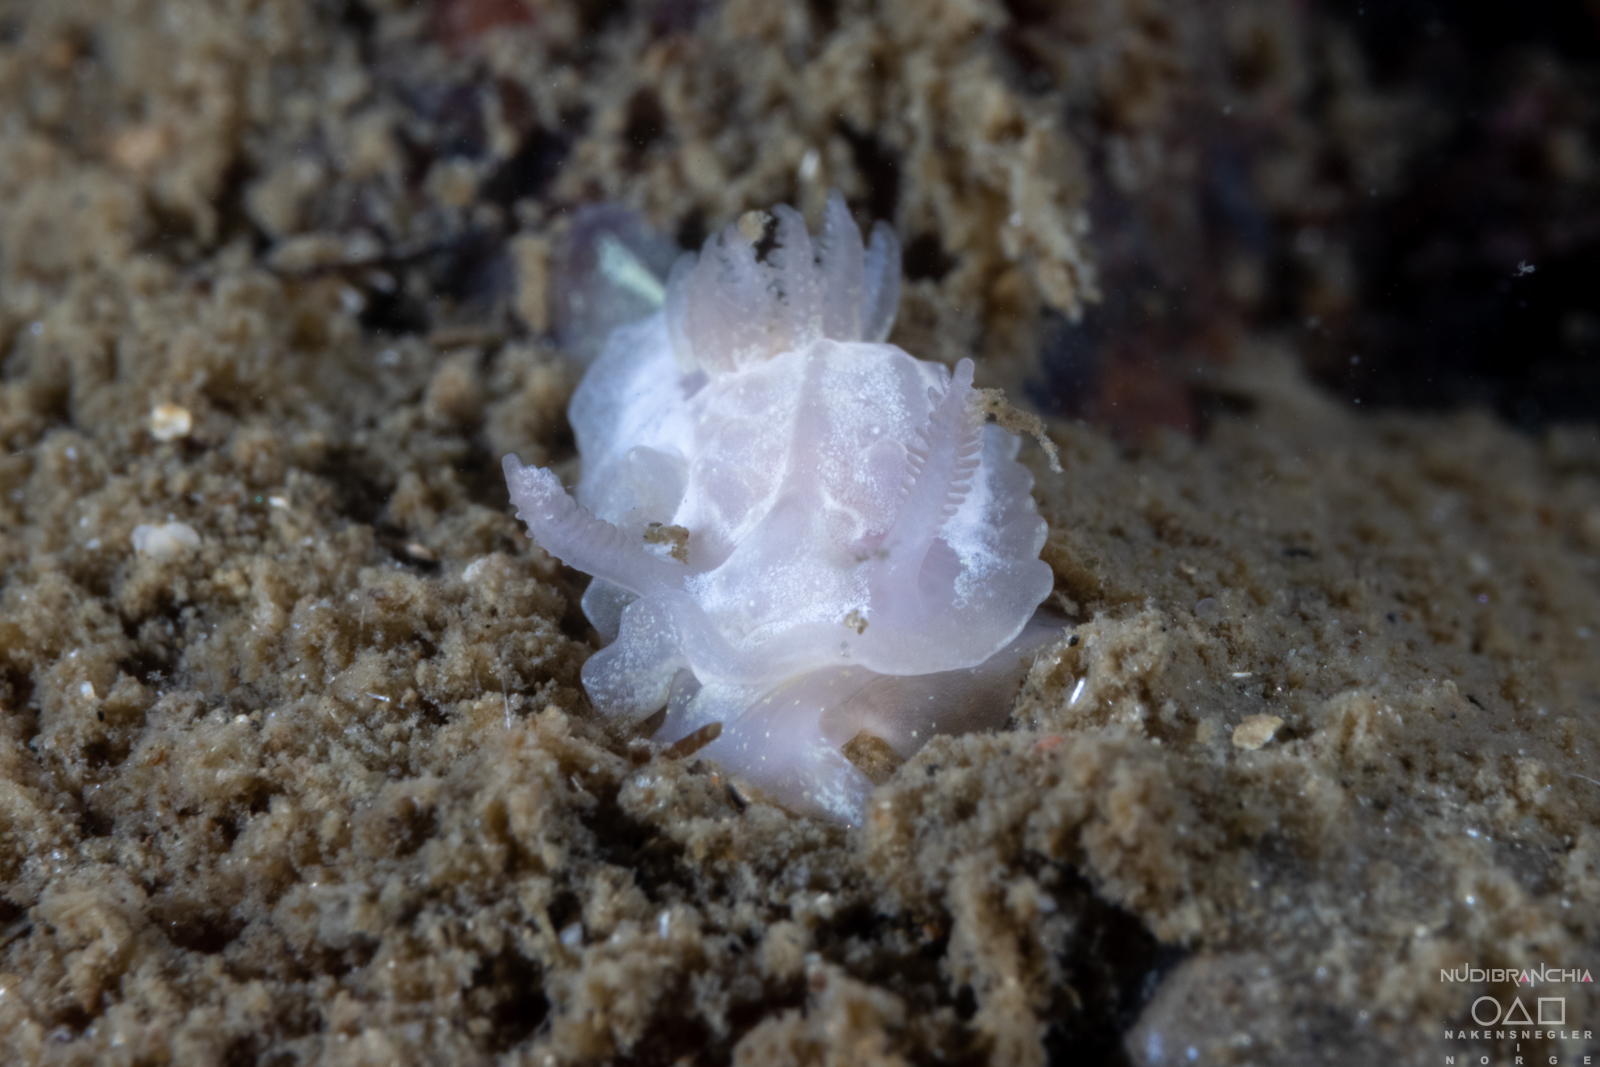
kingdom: Animalia
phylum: Mollusca
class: Gastropoda
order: Nudibranchia
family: Goniodorididae
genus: Okenia
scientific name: Okenia
